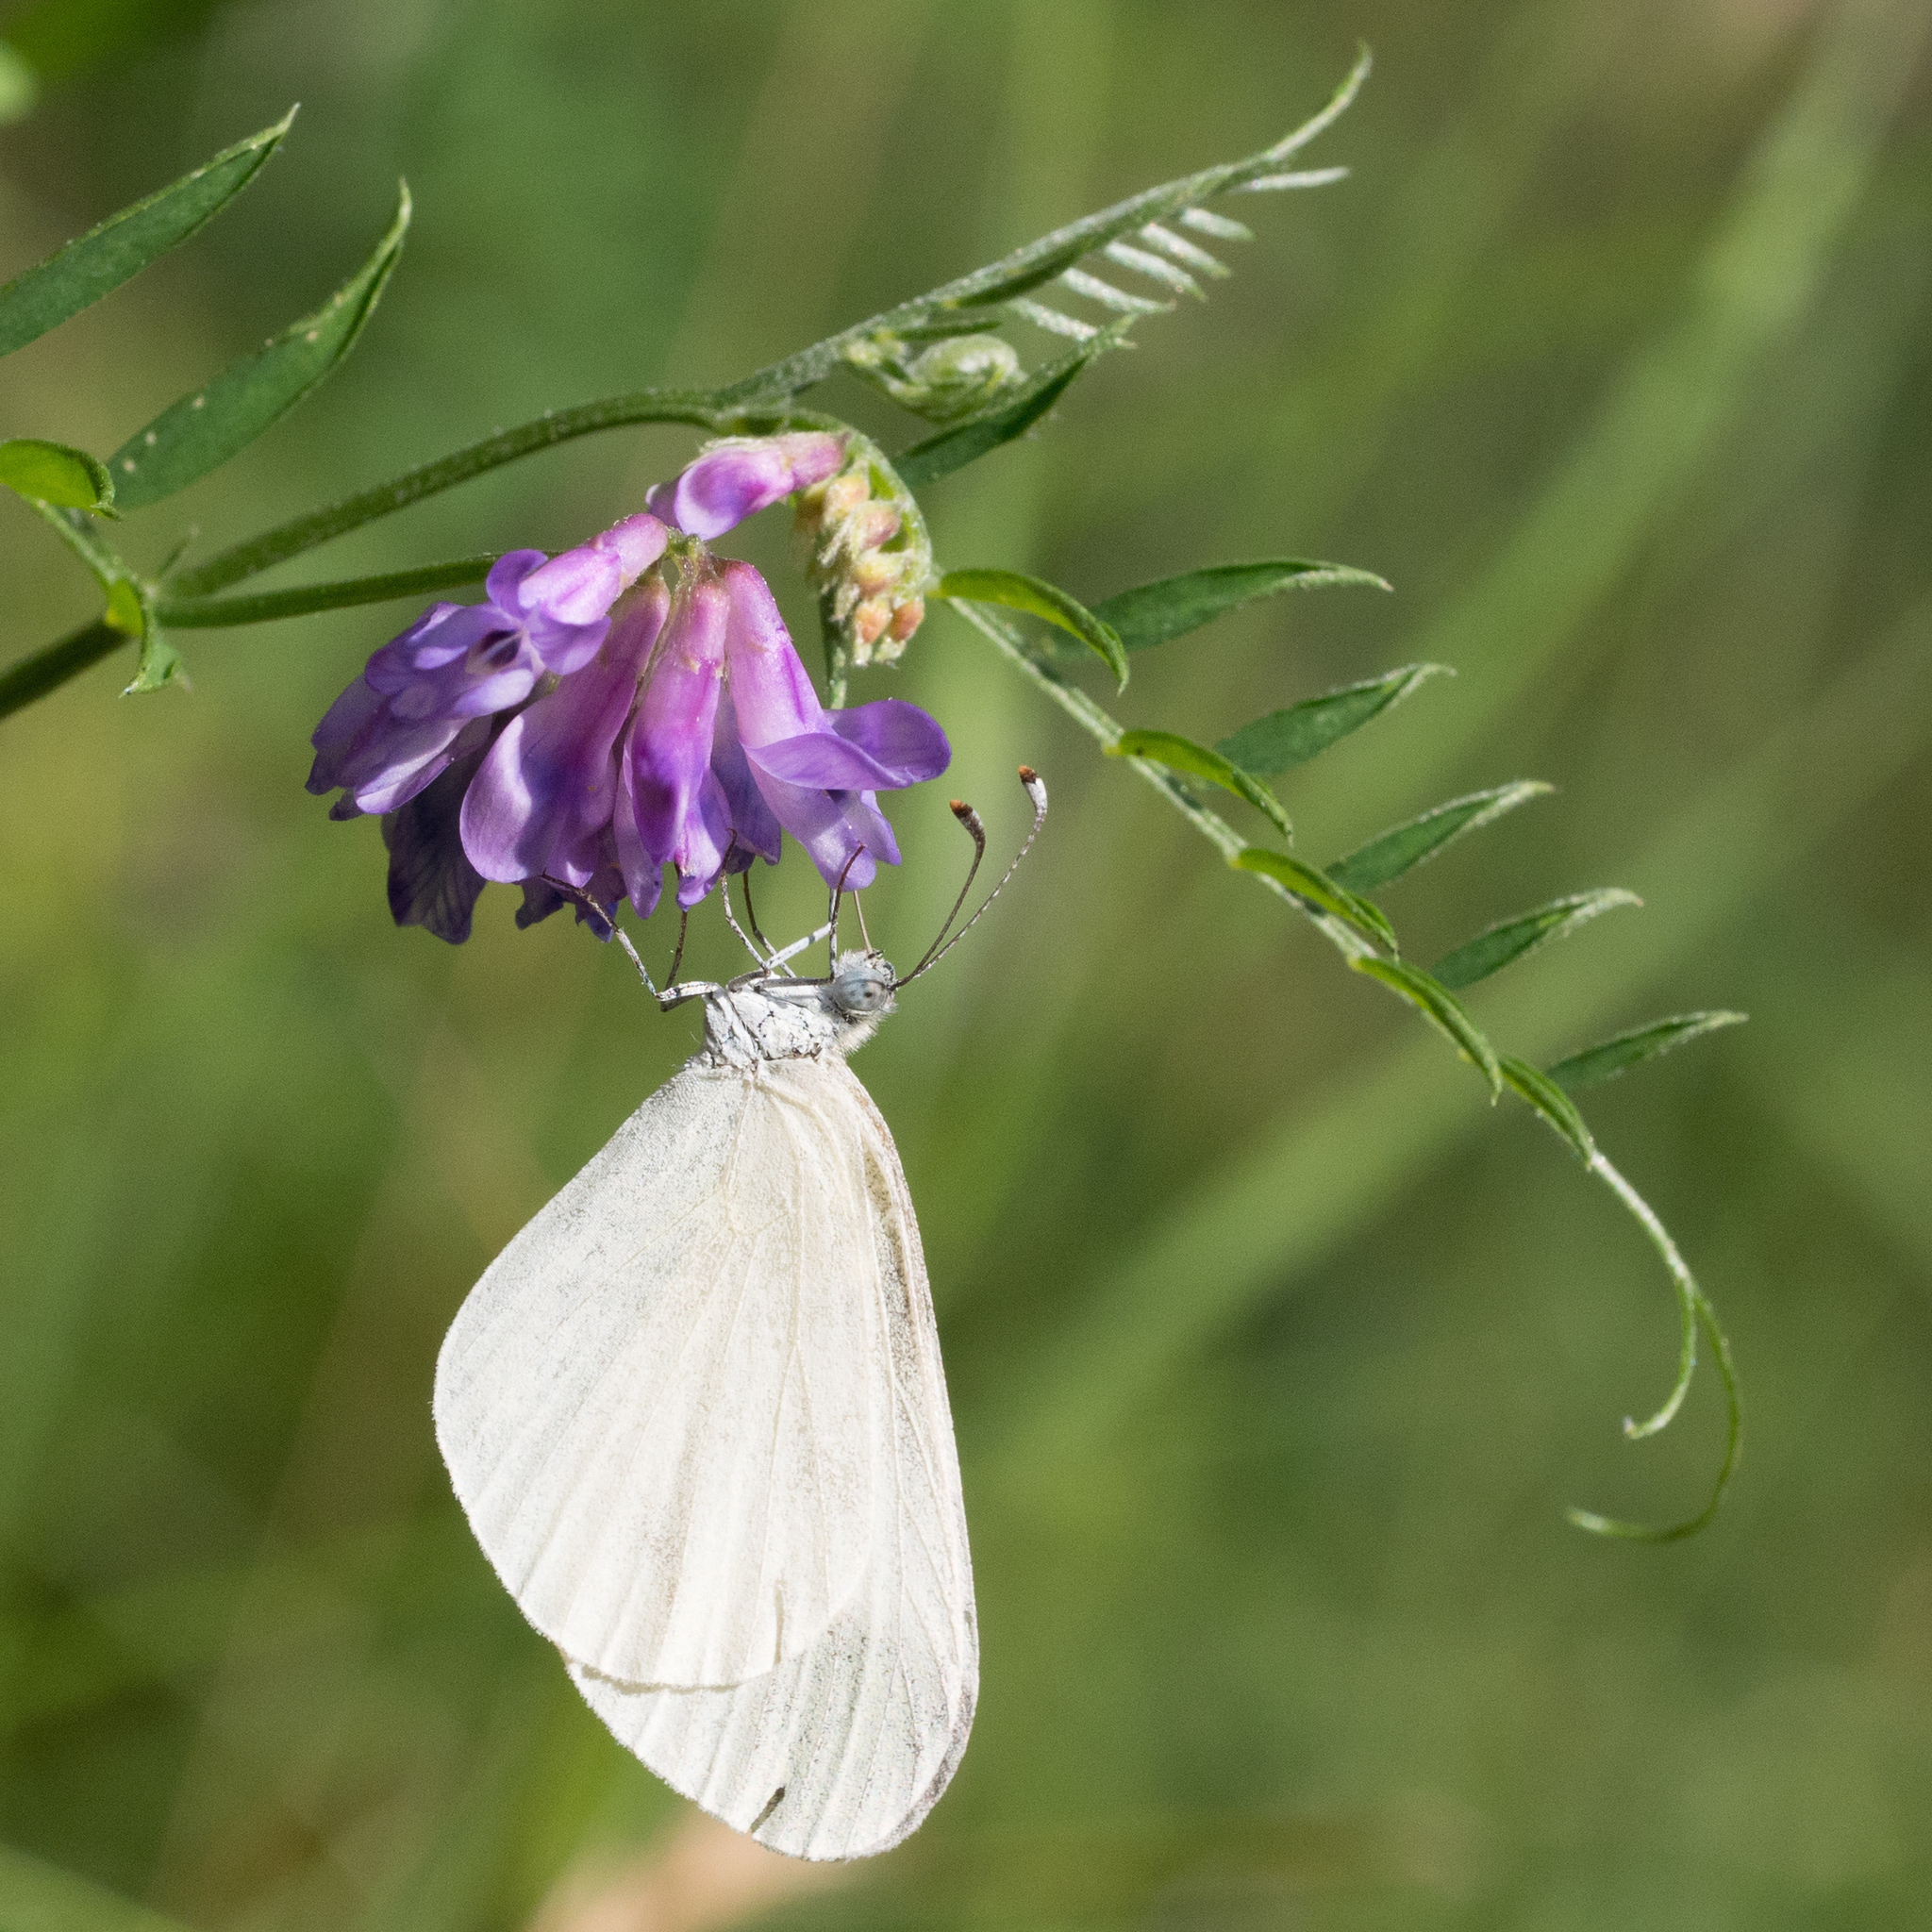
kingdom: Animalia
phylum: Arthropoda
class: Insecta
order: Lepidoptera
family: Pieridae
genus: Leptidea
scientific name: Leptidea
